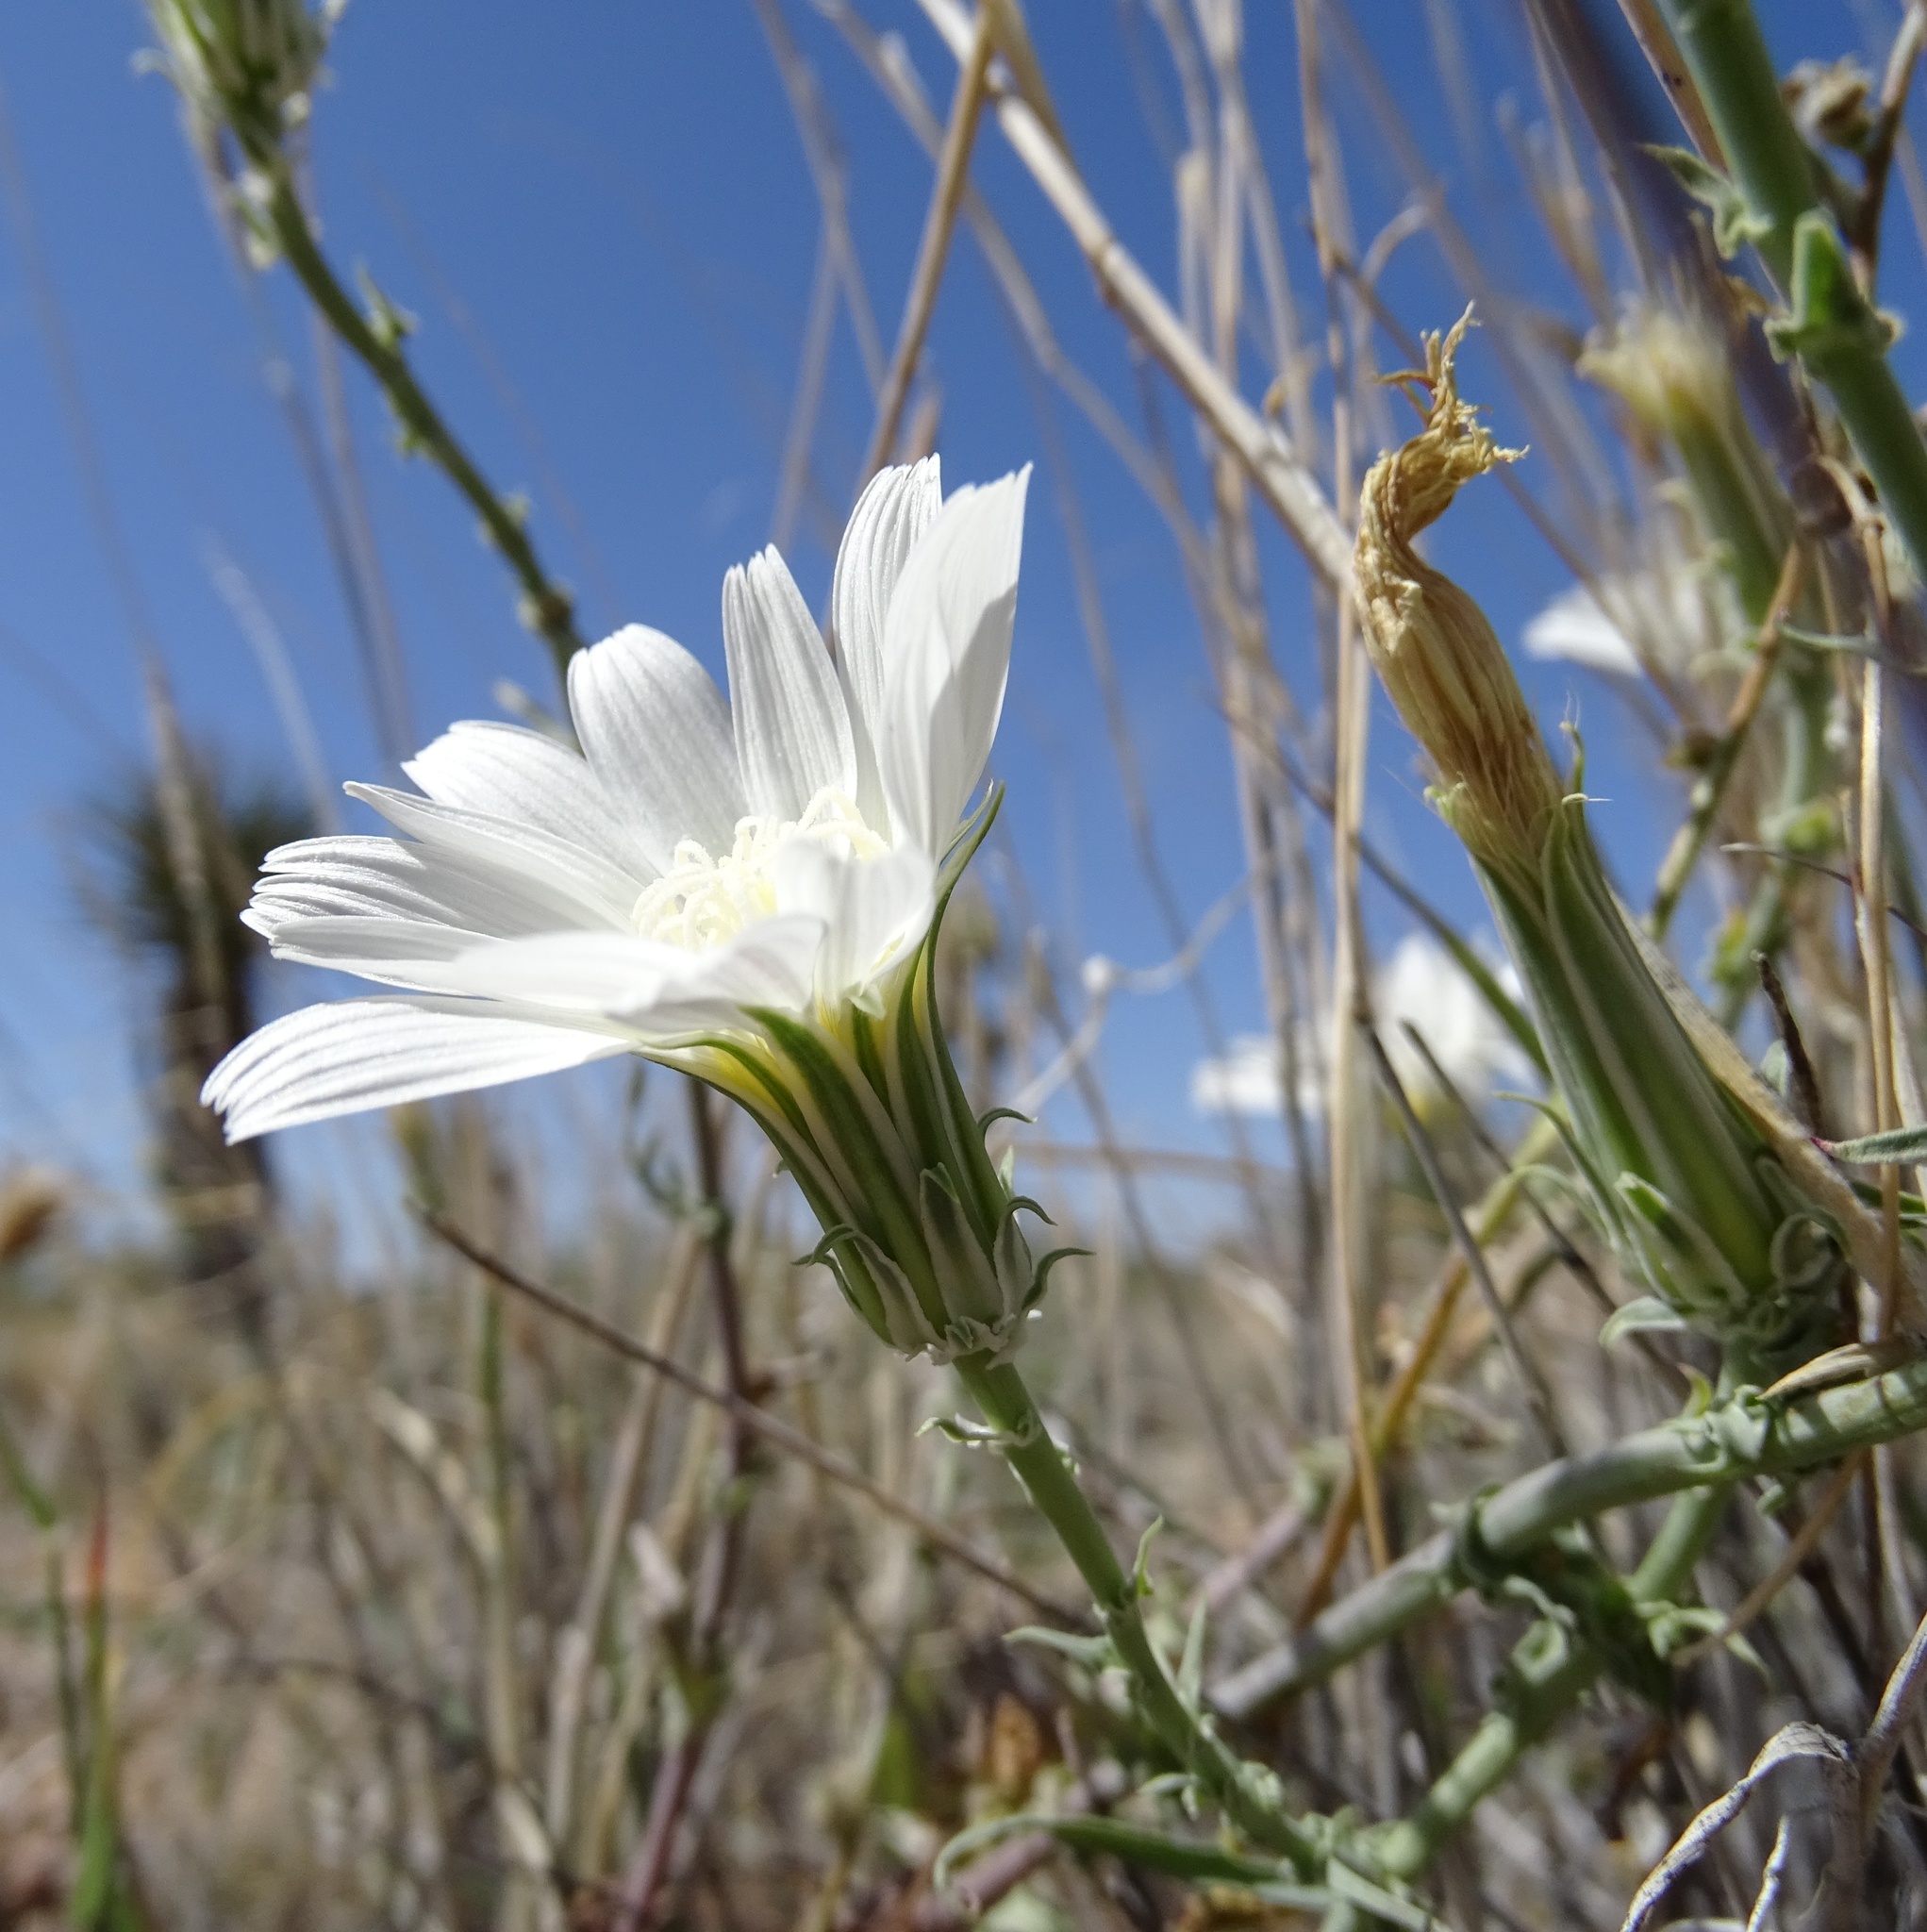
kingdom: Plantae
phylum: Tracheophyta
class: Magnoliopsida
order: Asterales
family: Asteraceae
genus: Rafinesquia
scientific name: Rafinesquia neomexicana
